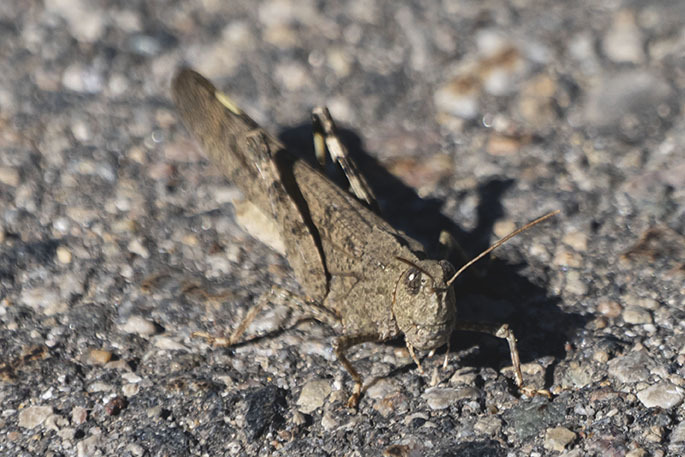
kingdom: Animalia
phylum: Arthropoda
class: Insecta
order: Orthoptera
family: Acrididae
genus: Dissosteira
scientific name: Dissosteira carolina
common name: Carolina grasshopper
